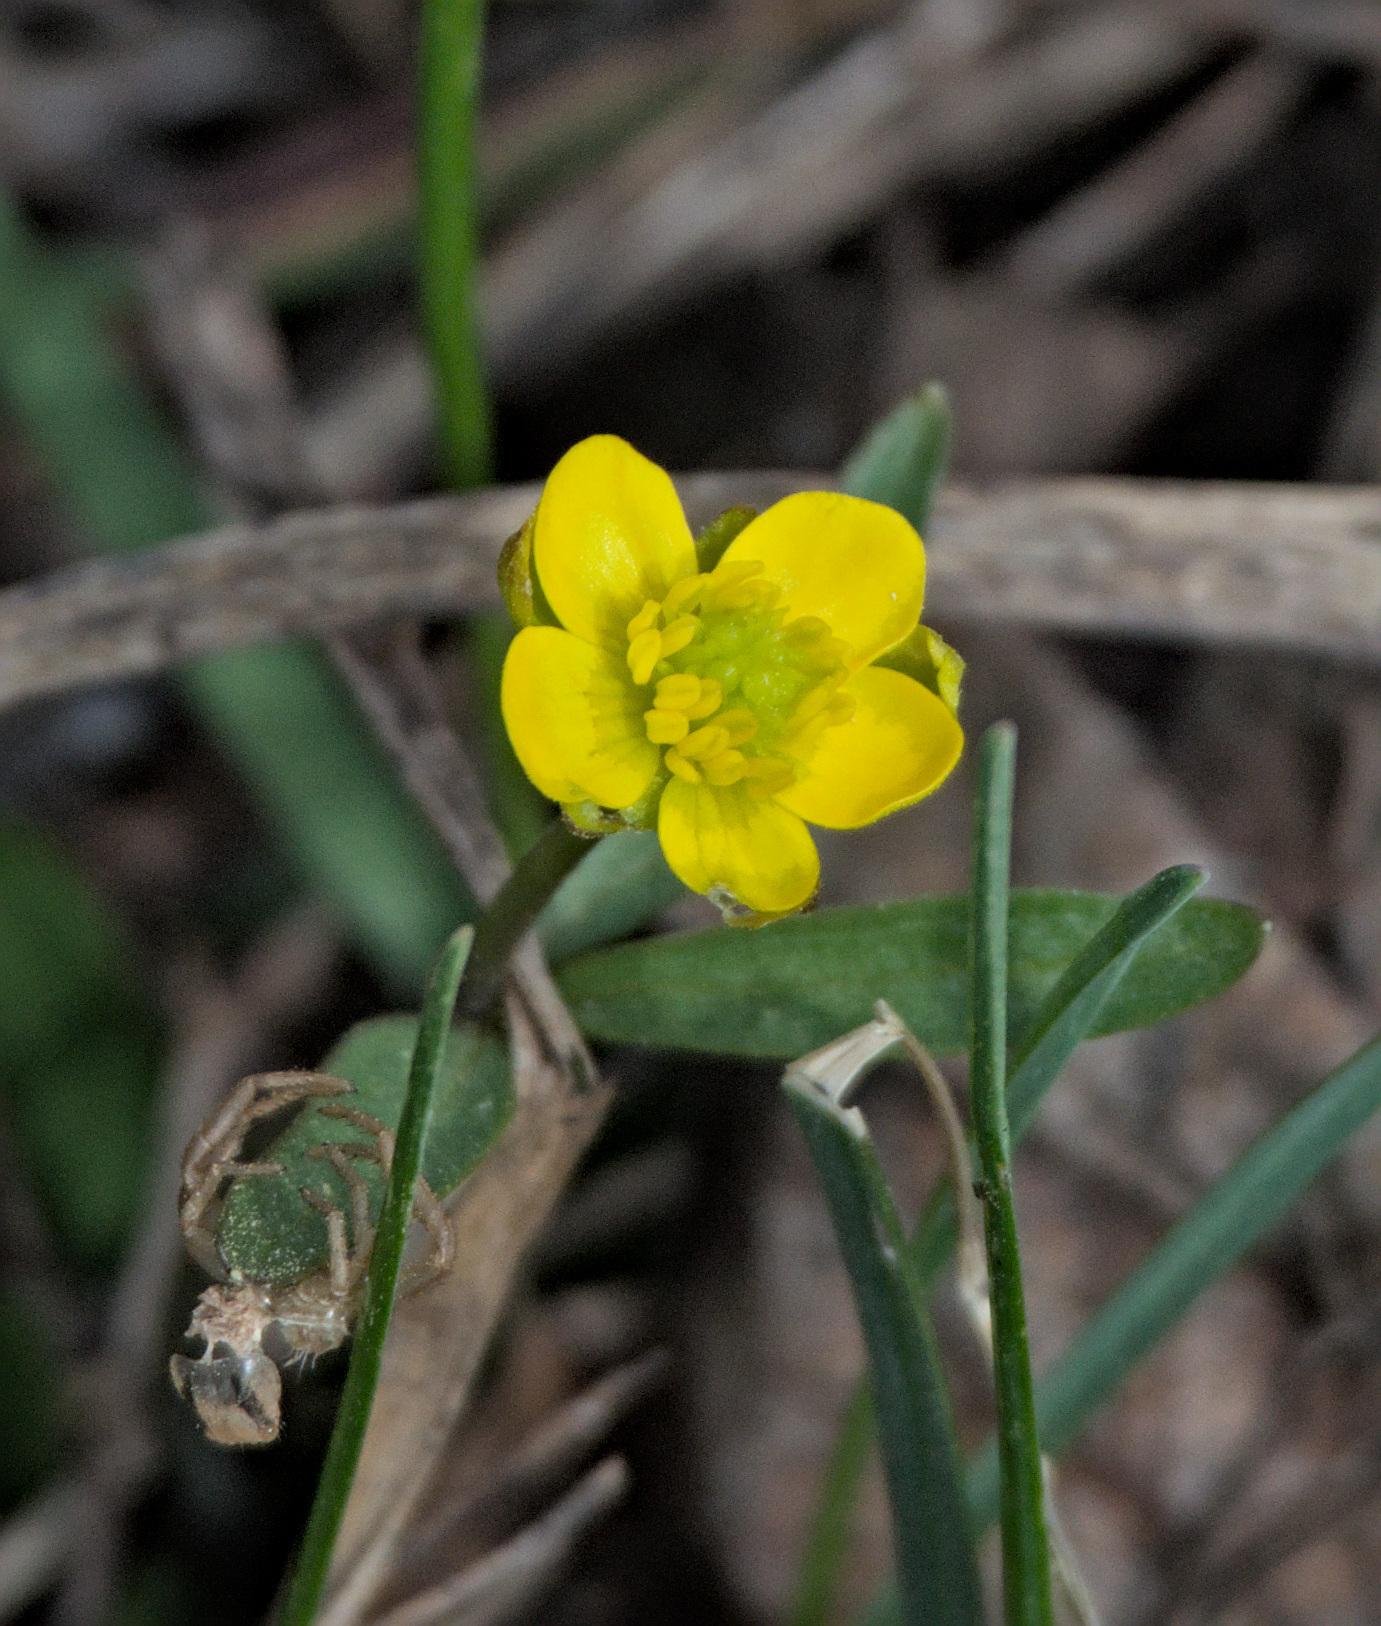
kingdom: Plantae
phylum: Tracheophyta
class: Magnoliopsida
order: Ranunculales
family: Ranunculaceae
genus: Ranunculus
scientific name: Ranunculus monophyllus
